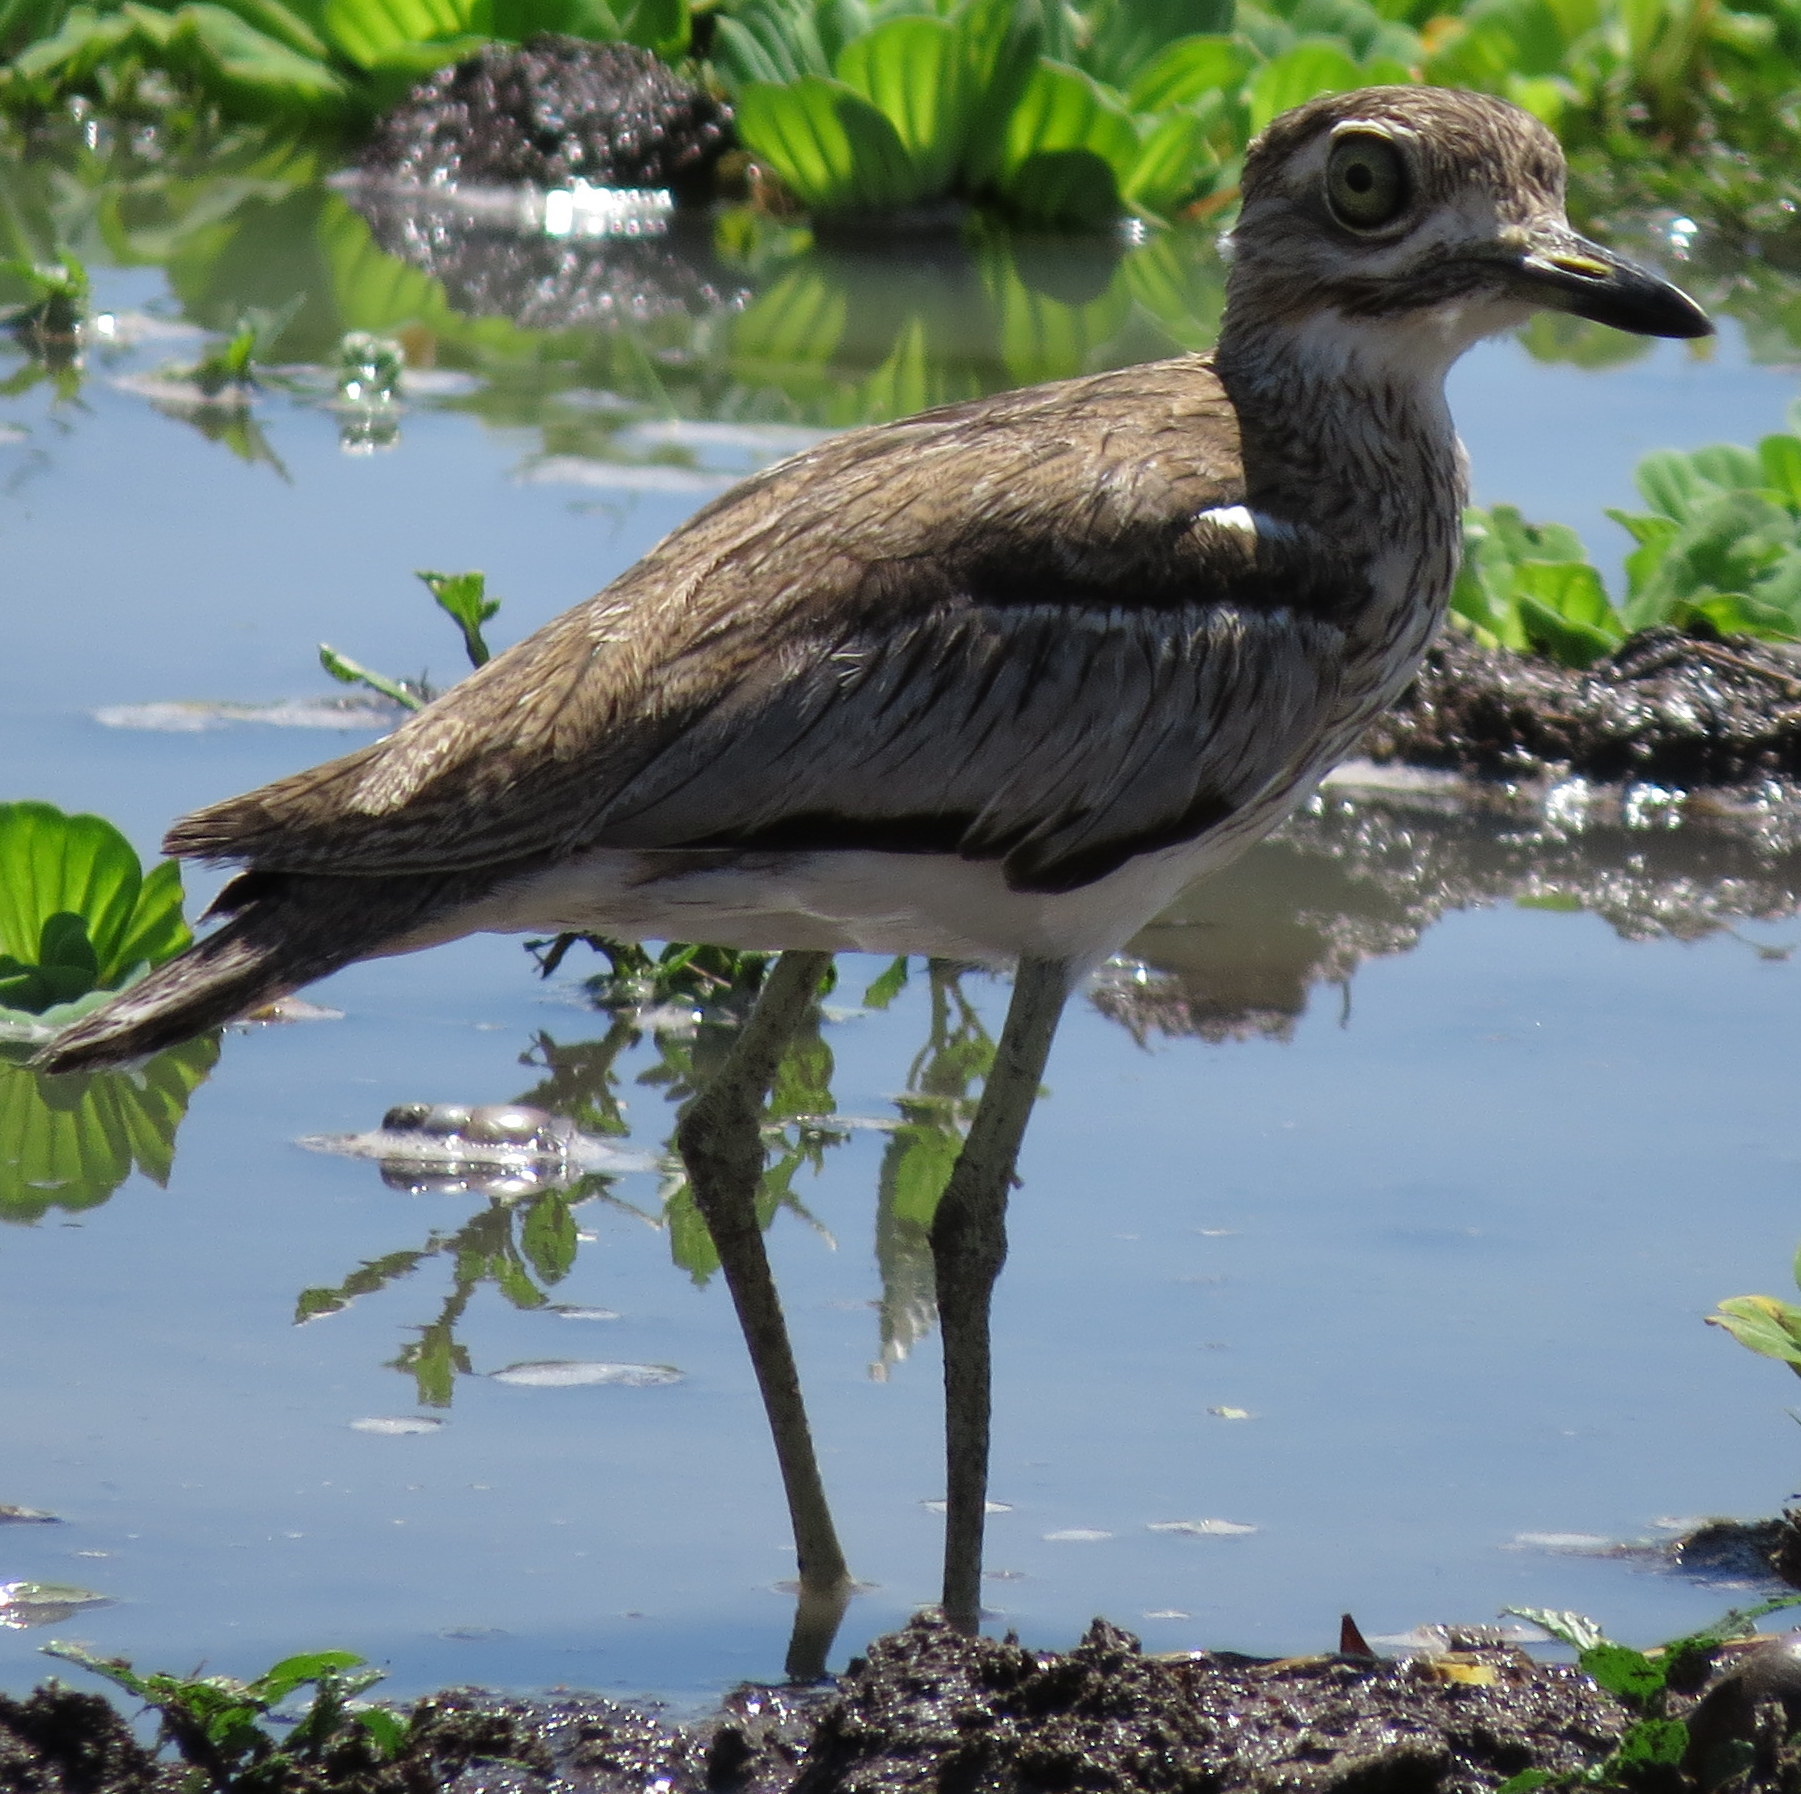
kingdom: Animalia
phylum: Chordata
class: Aves
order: Charadriiformes
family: Burhinidae
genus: Burhinus
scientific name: Burhinus vermiculatus
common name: Water thick-knee
